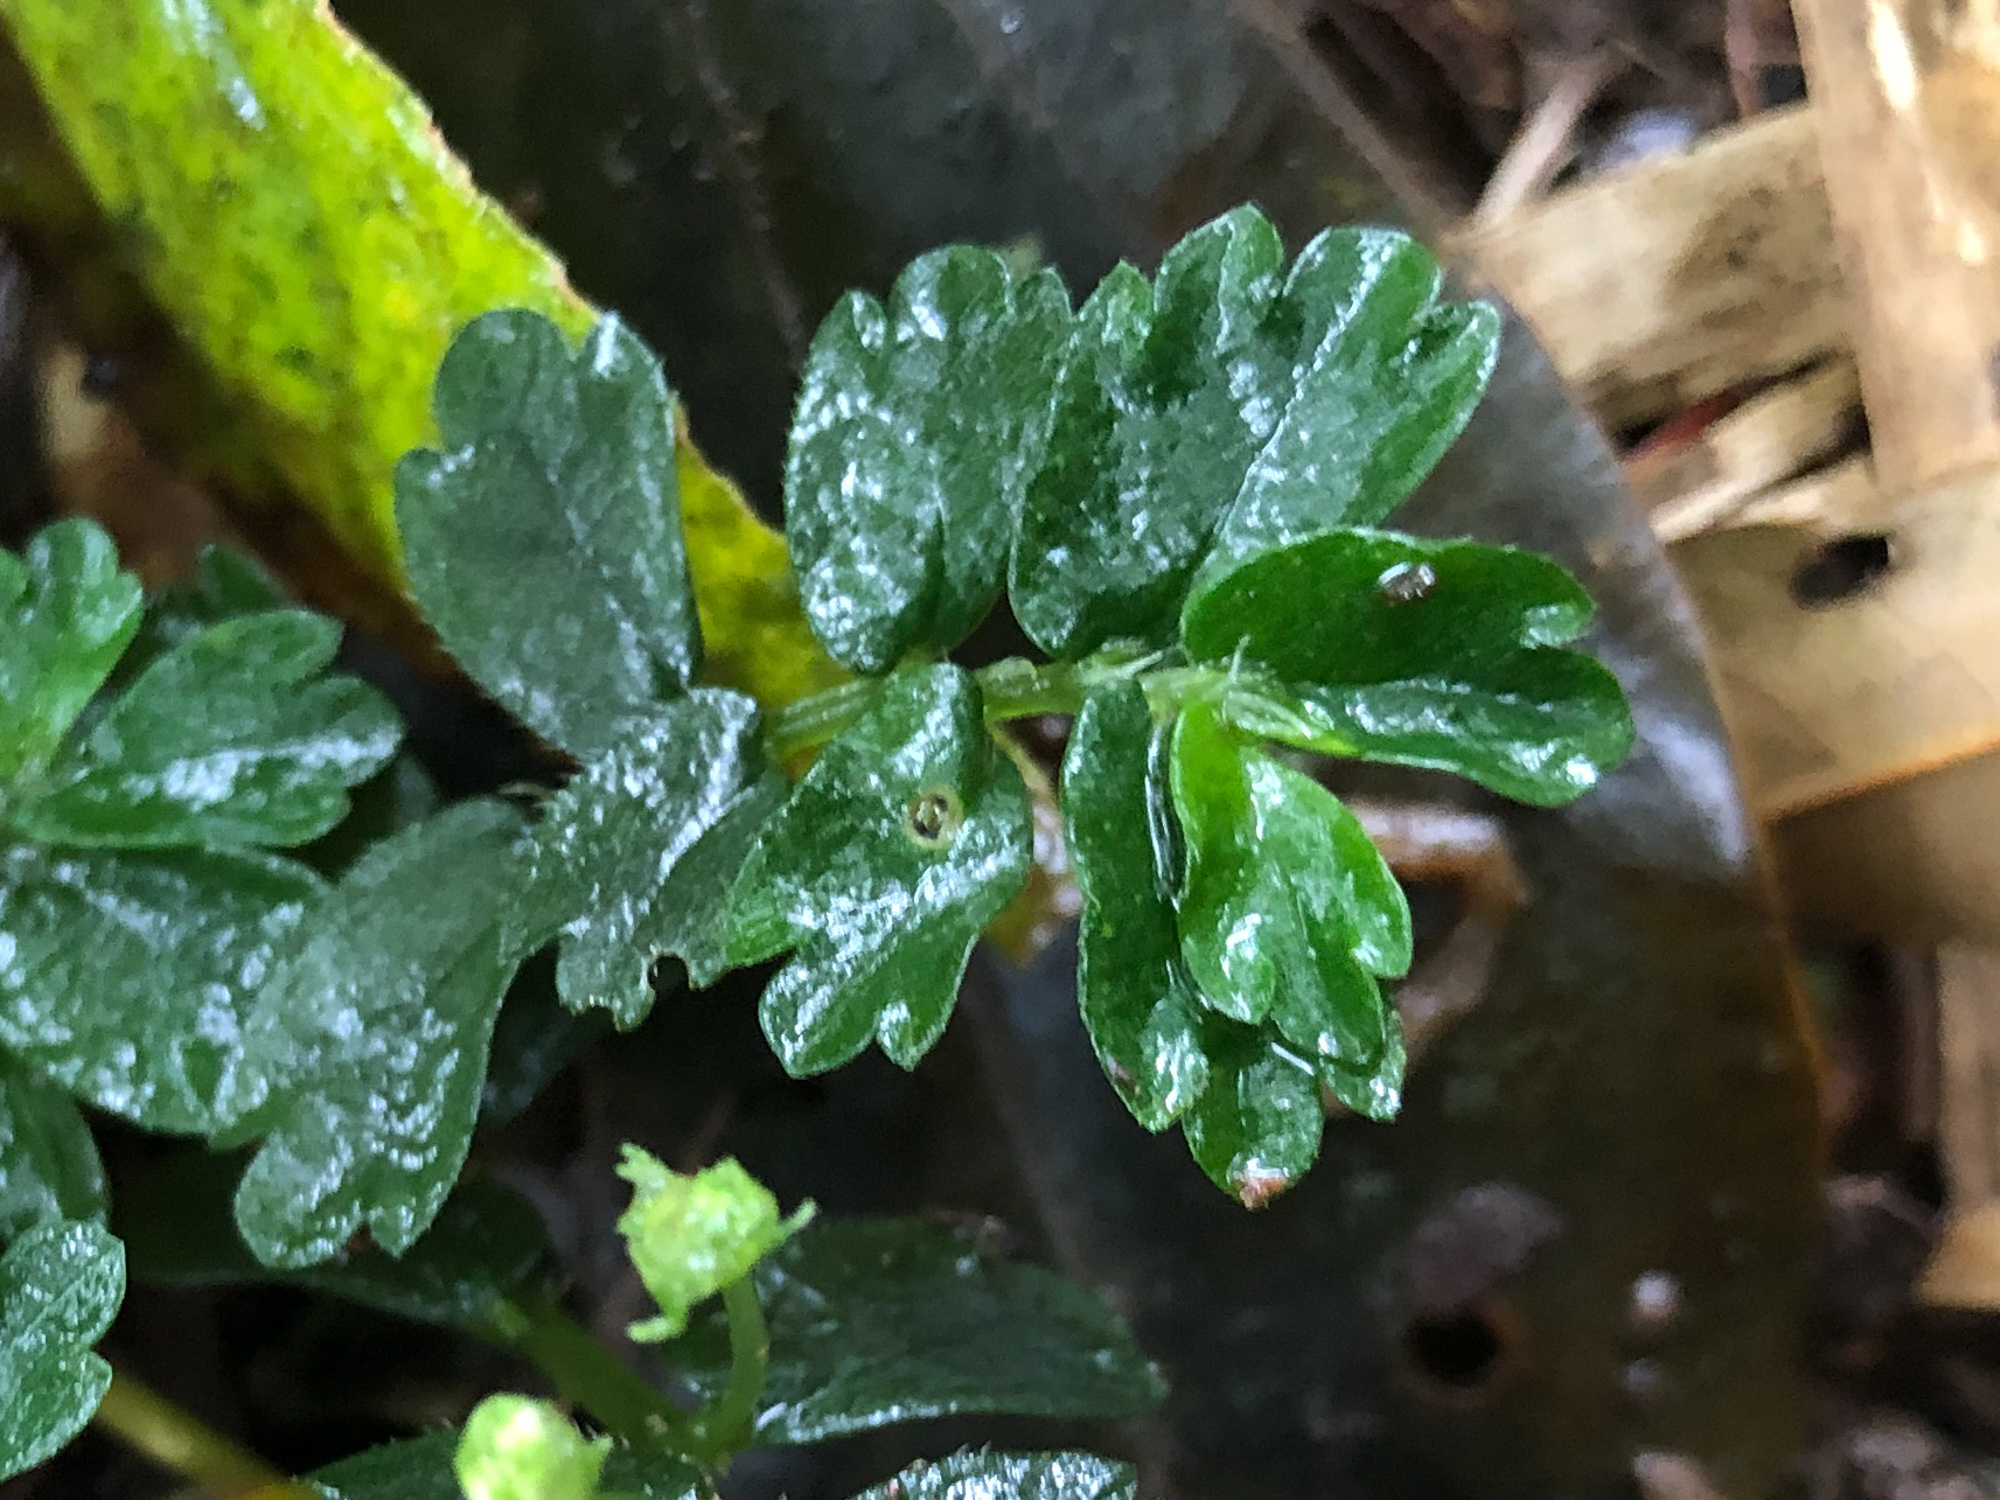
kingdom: Plantae
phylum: Tracheophyta
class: Magnoliopsida
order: Rosales
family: Urticaceae
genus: Elatostema
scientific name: Elatostema obtusum
